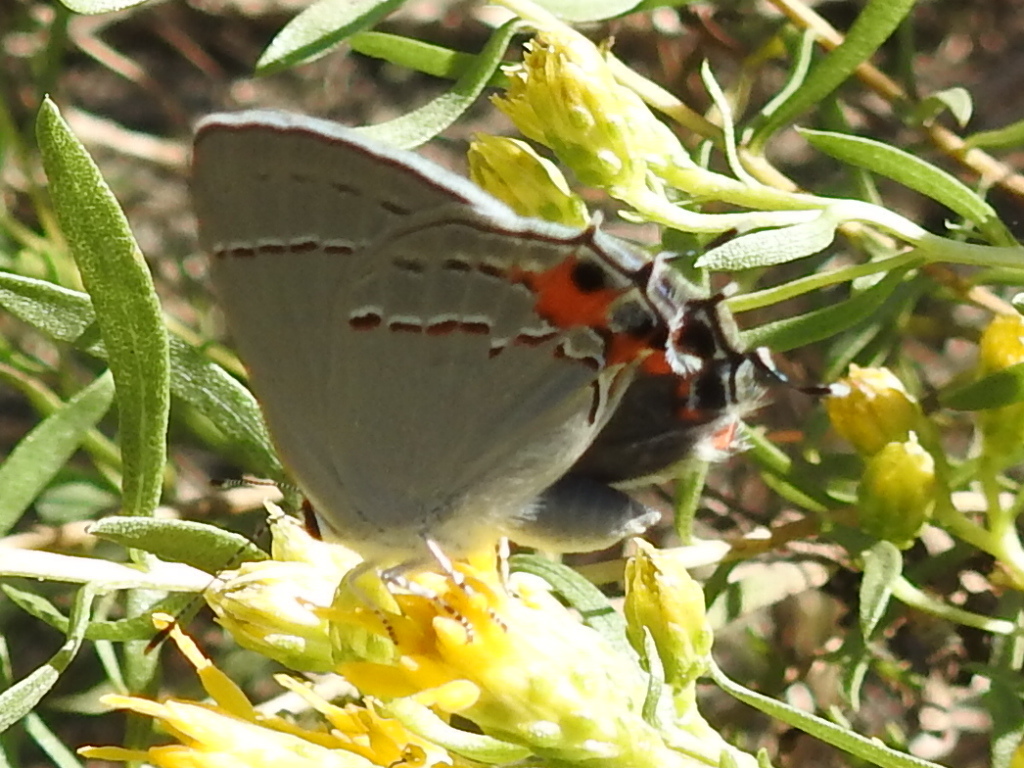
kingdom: Animalia
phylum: Arthropoda
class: Insecta
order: Lepidoptera
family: Lycaenidae
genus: Strymon
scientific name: Strymon melinus
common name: Gray hairstreak
